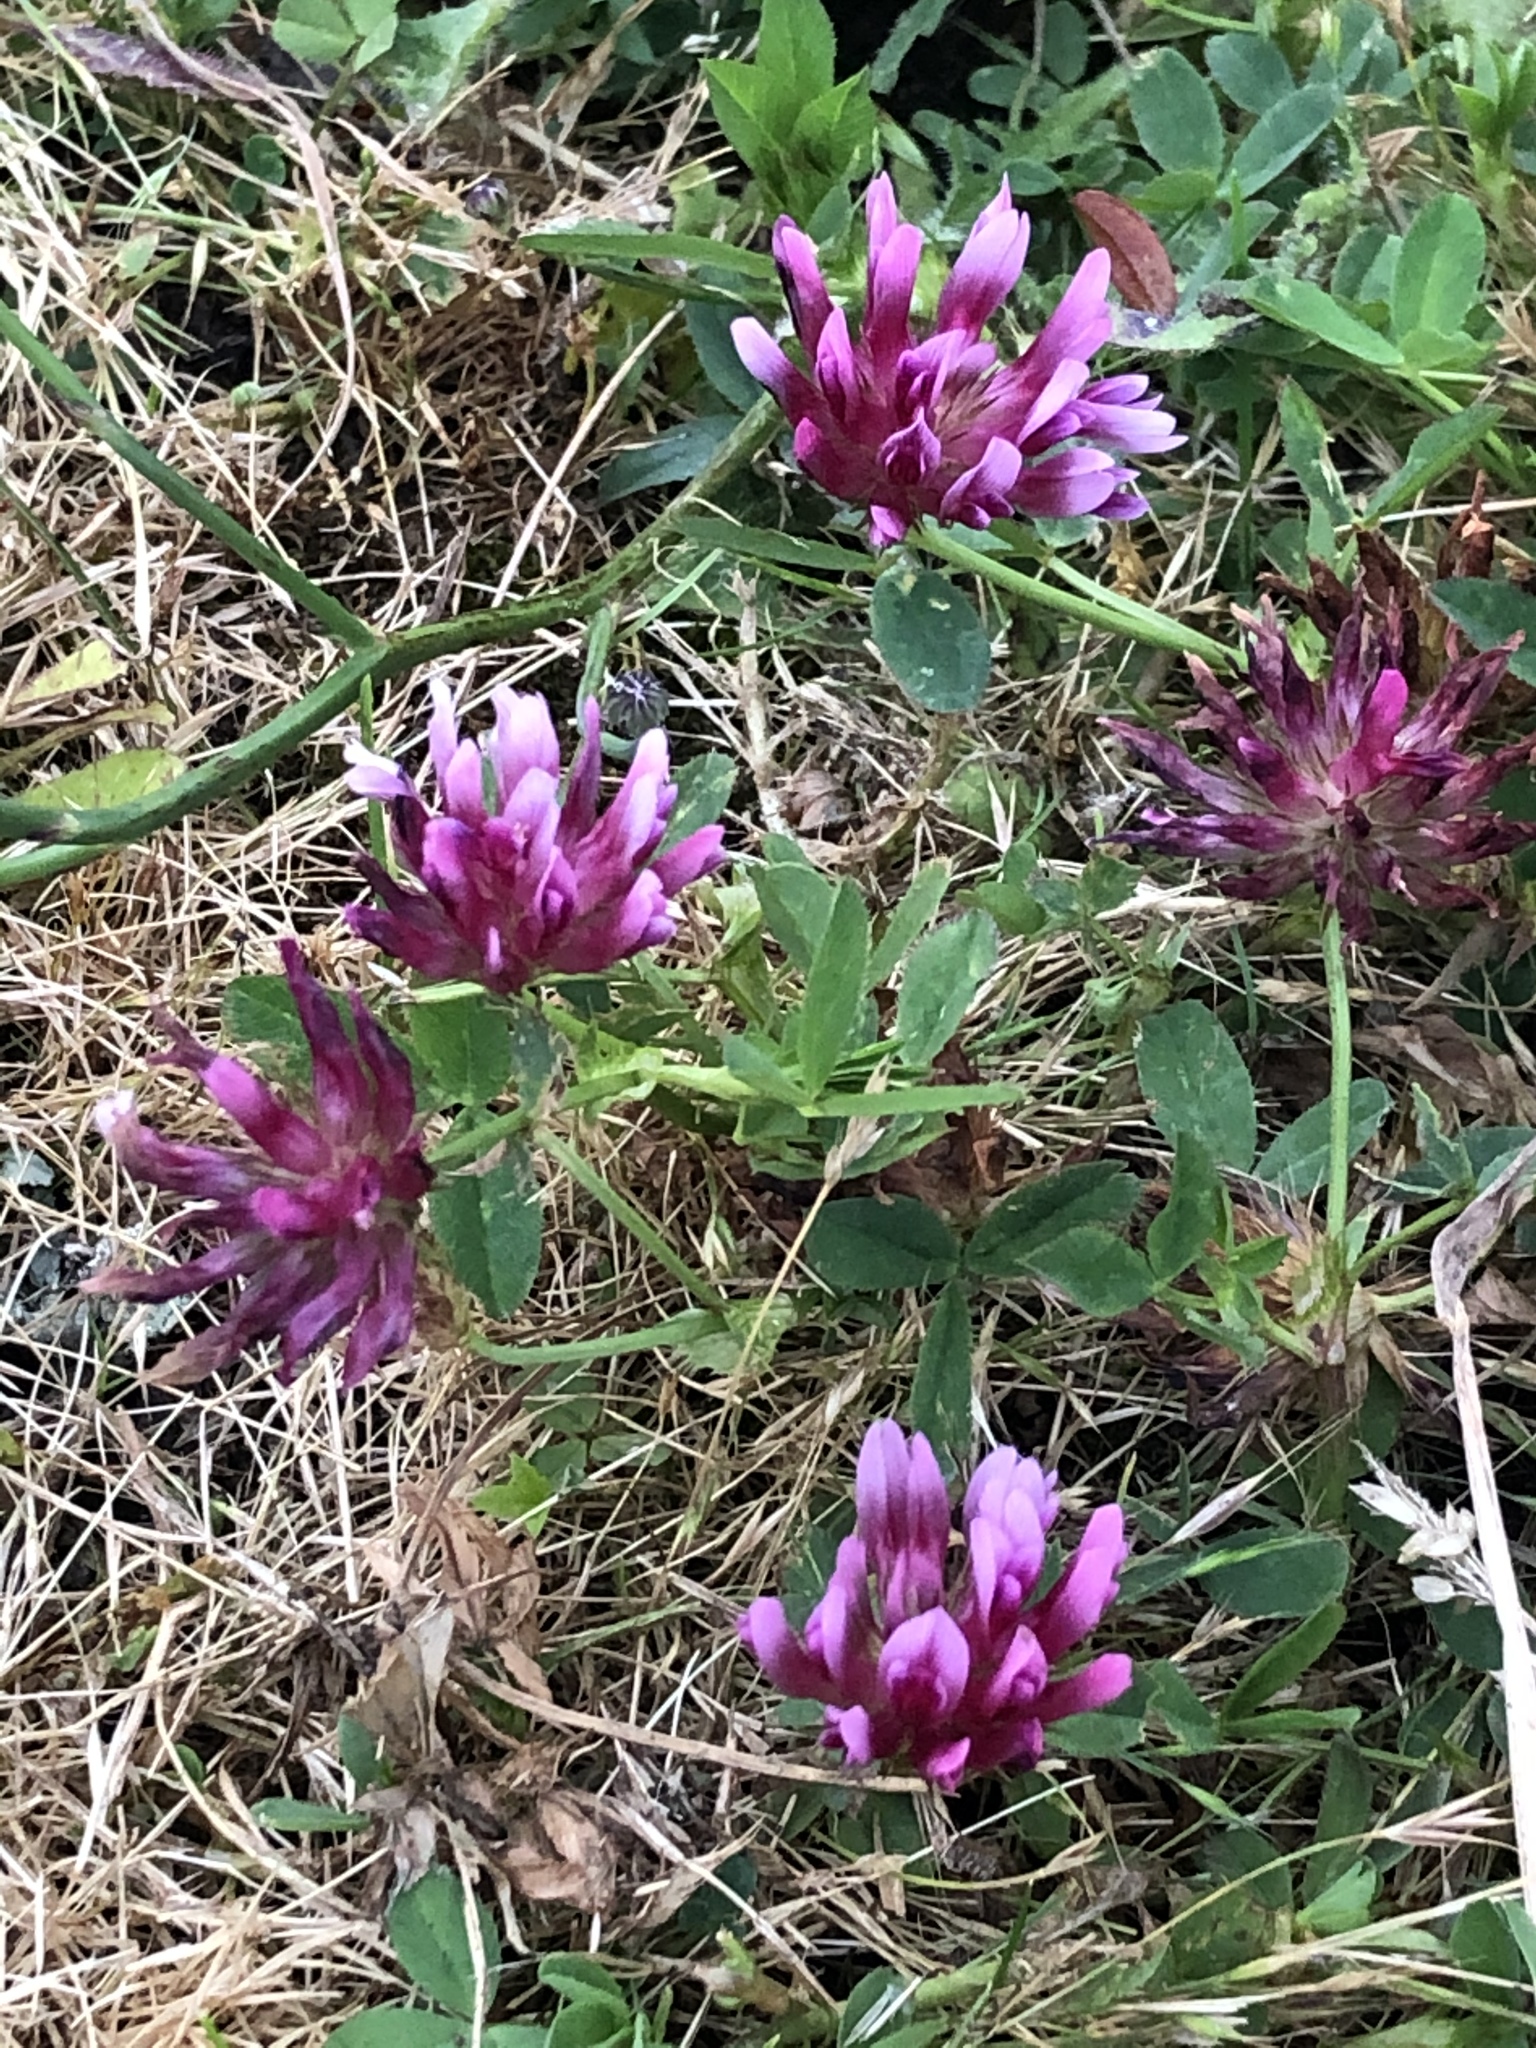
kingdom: Plantae
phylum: Tracheophyta
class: Magnoliopsida
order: Fabales
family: Fabaceae
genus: Trifolium
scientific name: Trifolium wormskioldii
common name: Springbank clover
